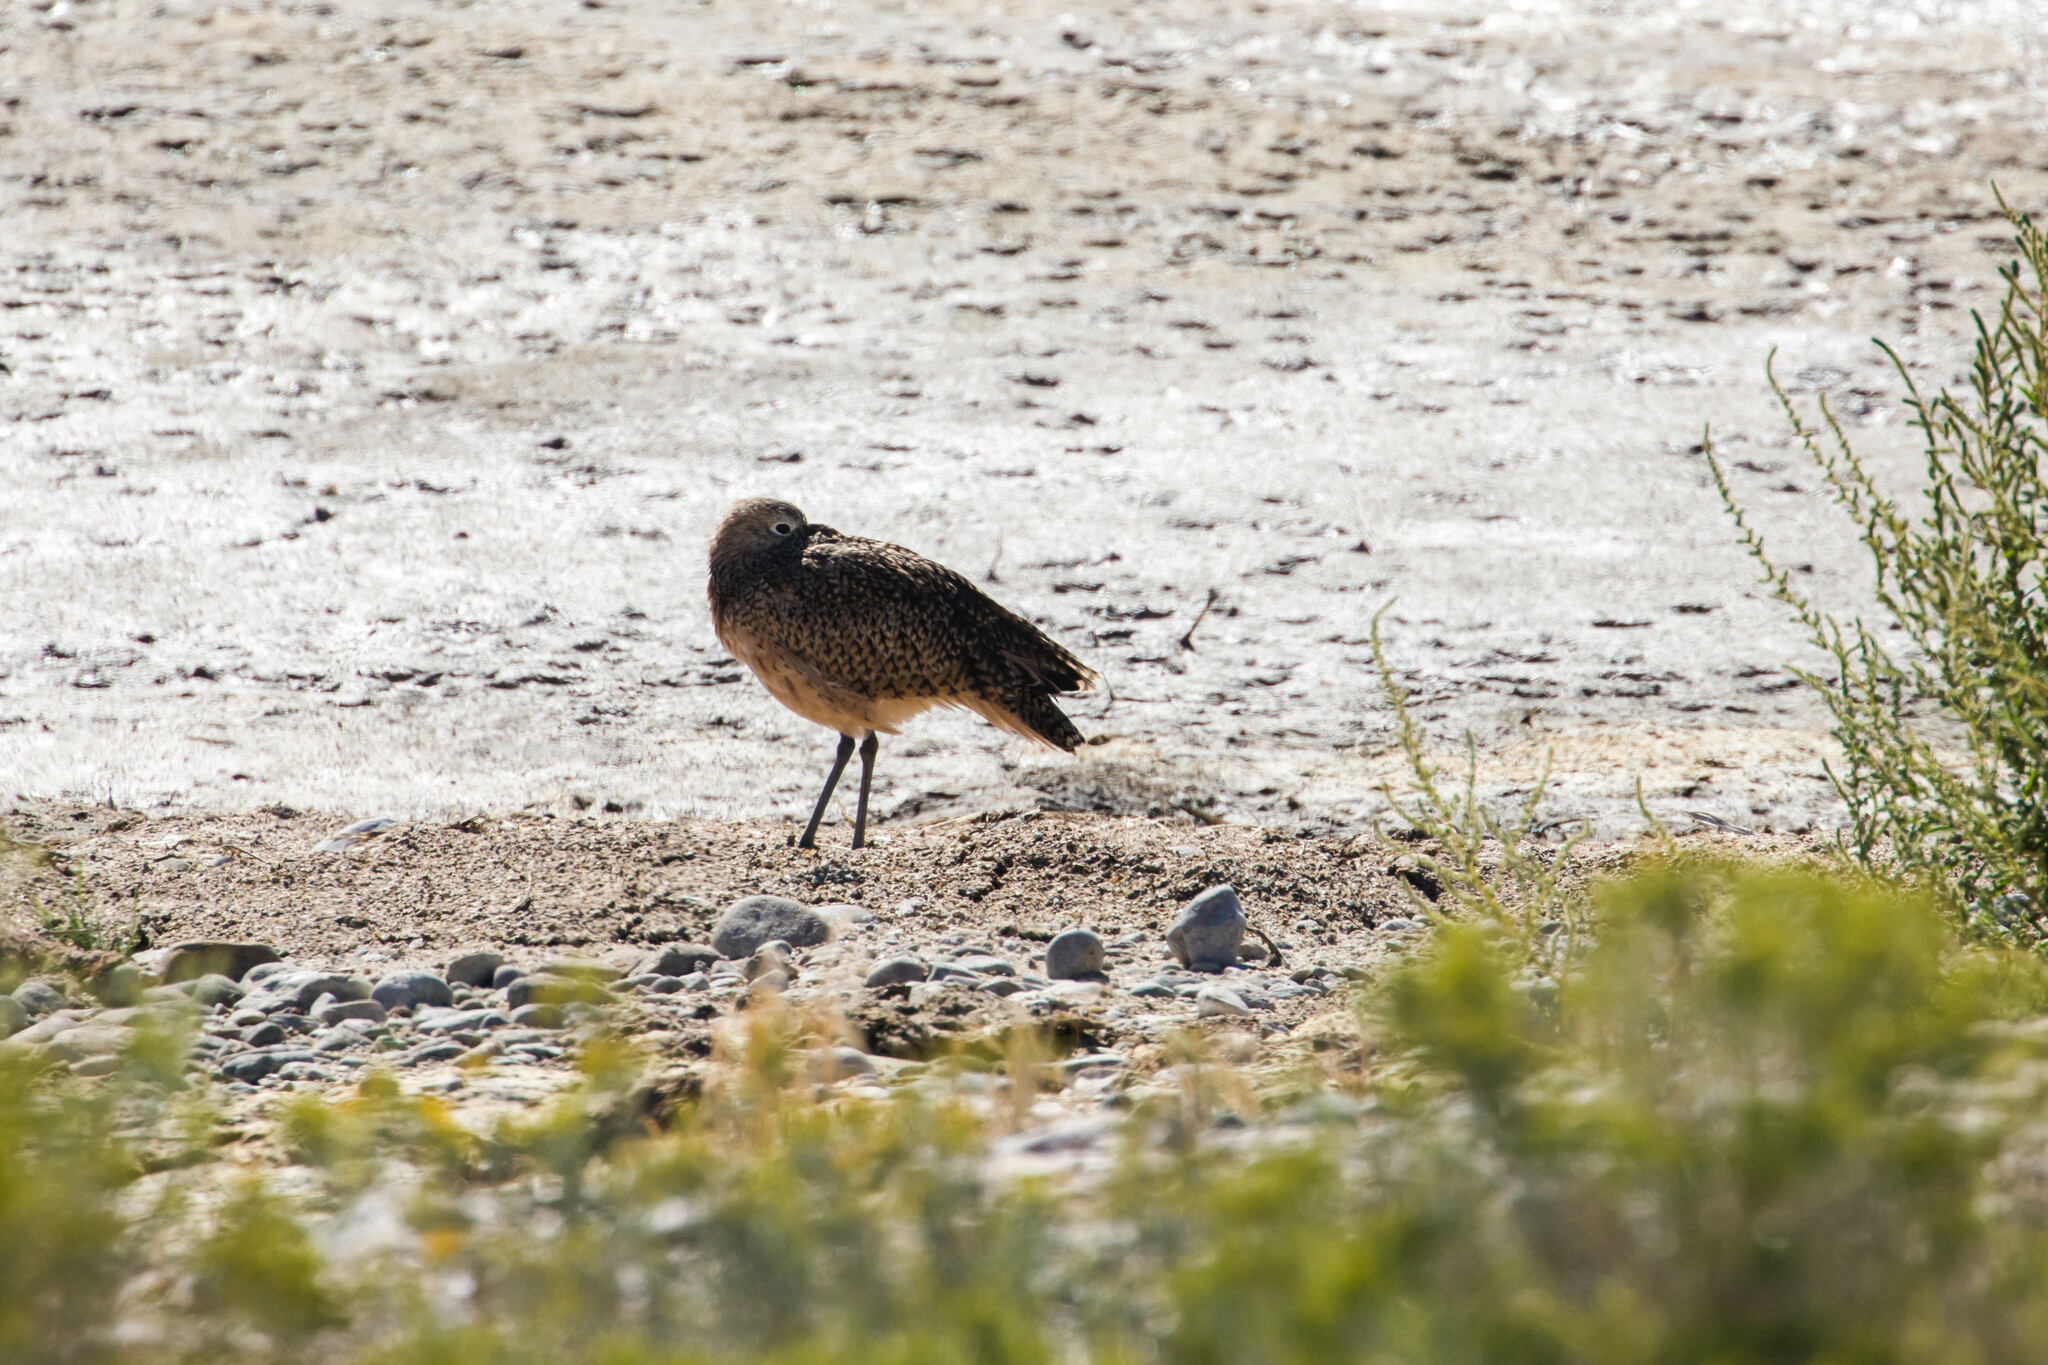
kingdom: Animalia
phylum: Chordata
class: Aves
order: Charadriiformes
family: Scolopacidae
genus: Numenius
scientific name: Numenius americanus
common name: Long-billed curlew
